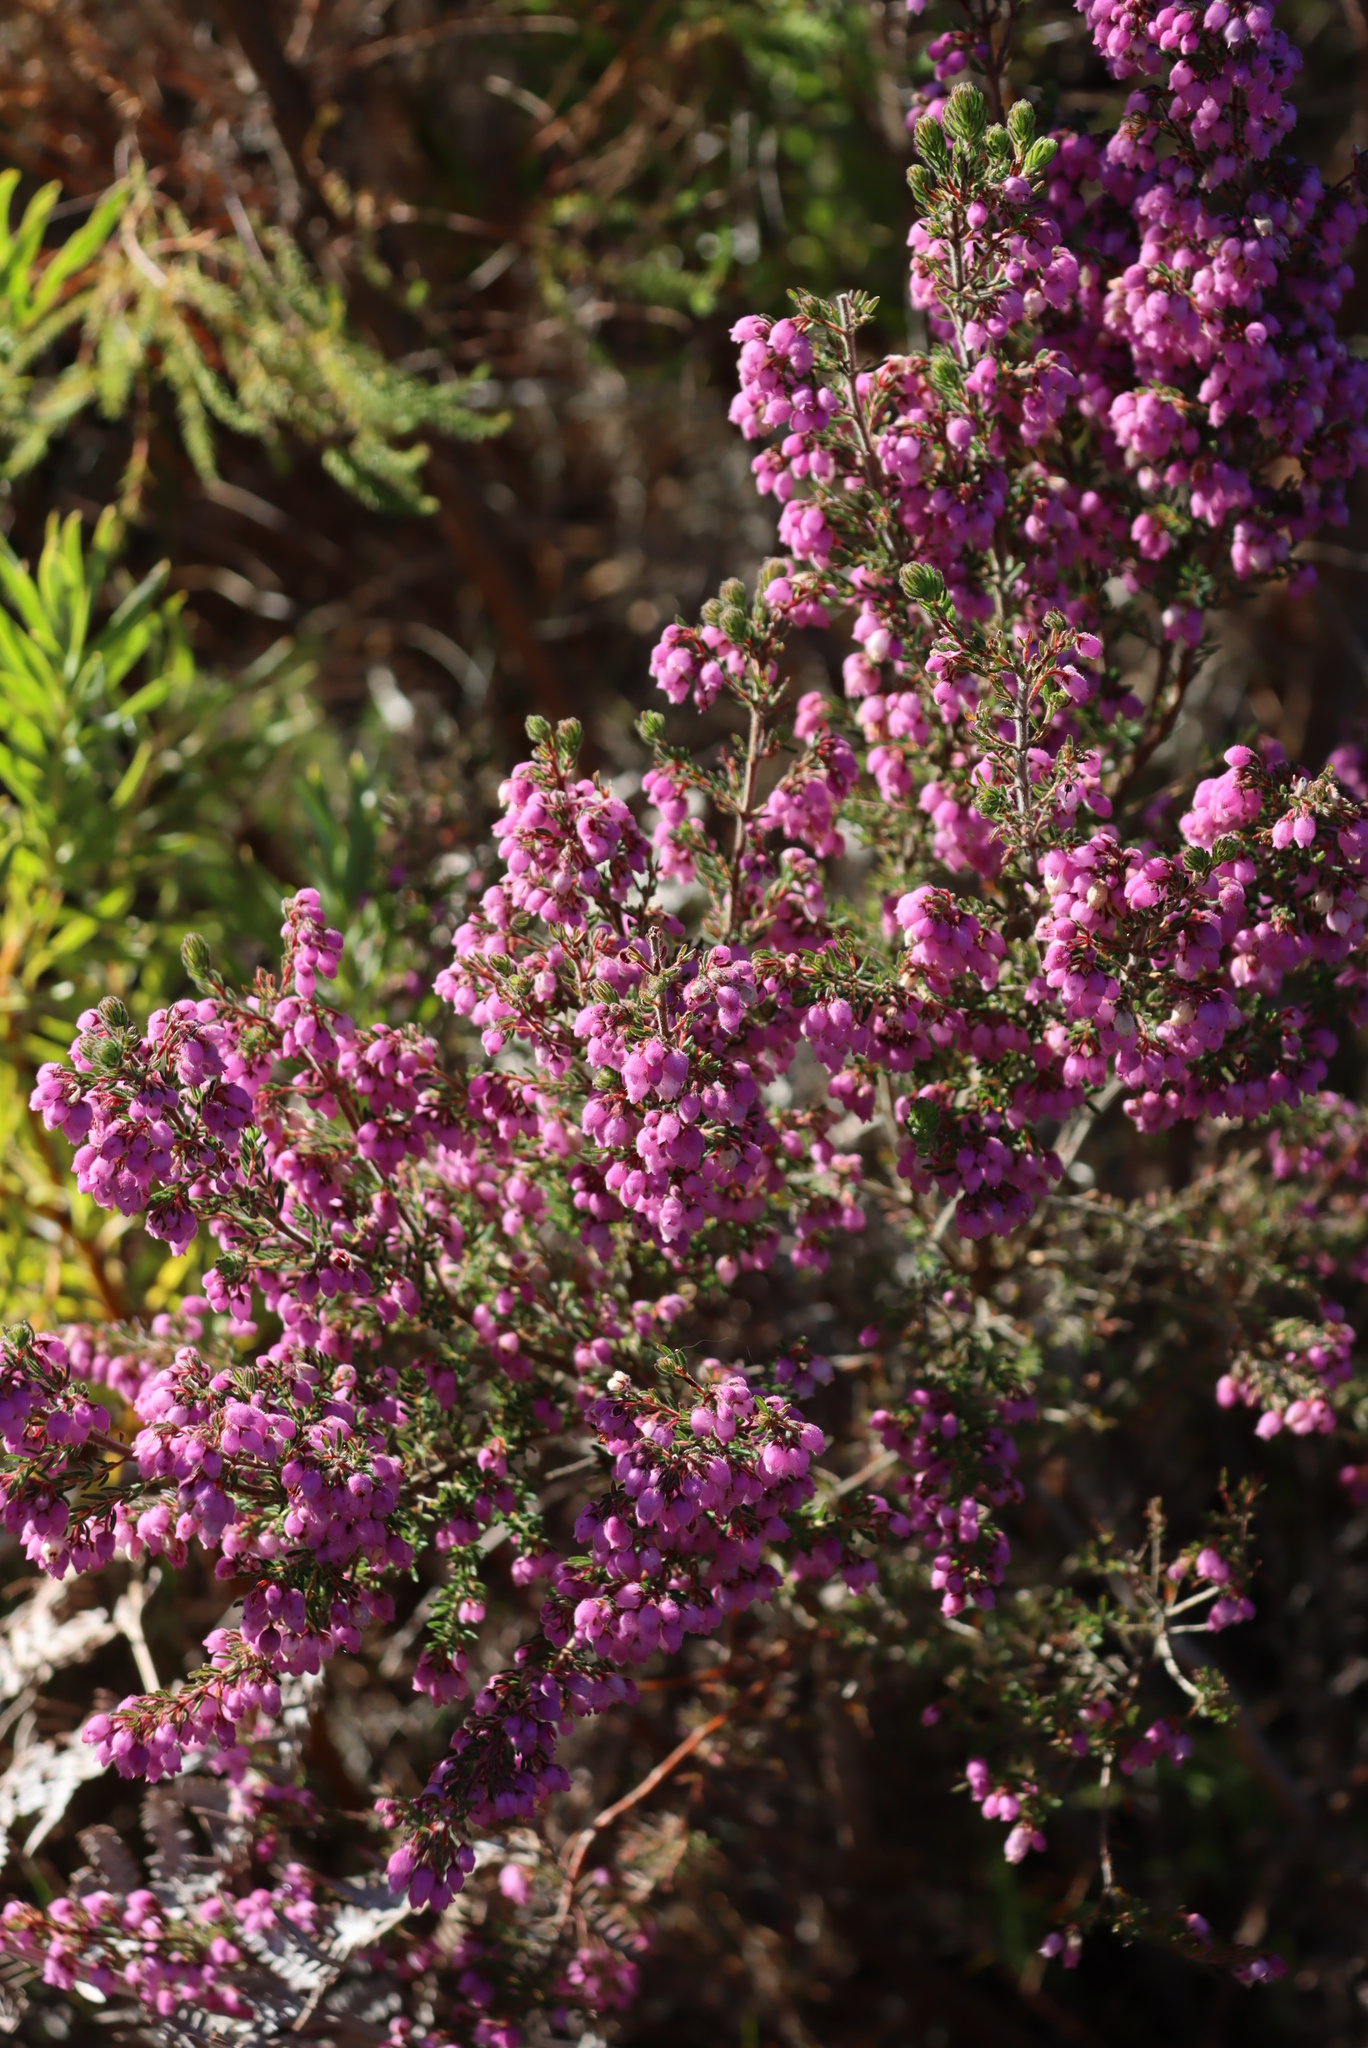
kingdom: Plantae
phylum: Tracheophyta
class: Magnoliopsida
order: Ericales
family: Ericaceae
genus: Erica
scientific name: Erica hirtiflora
